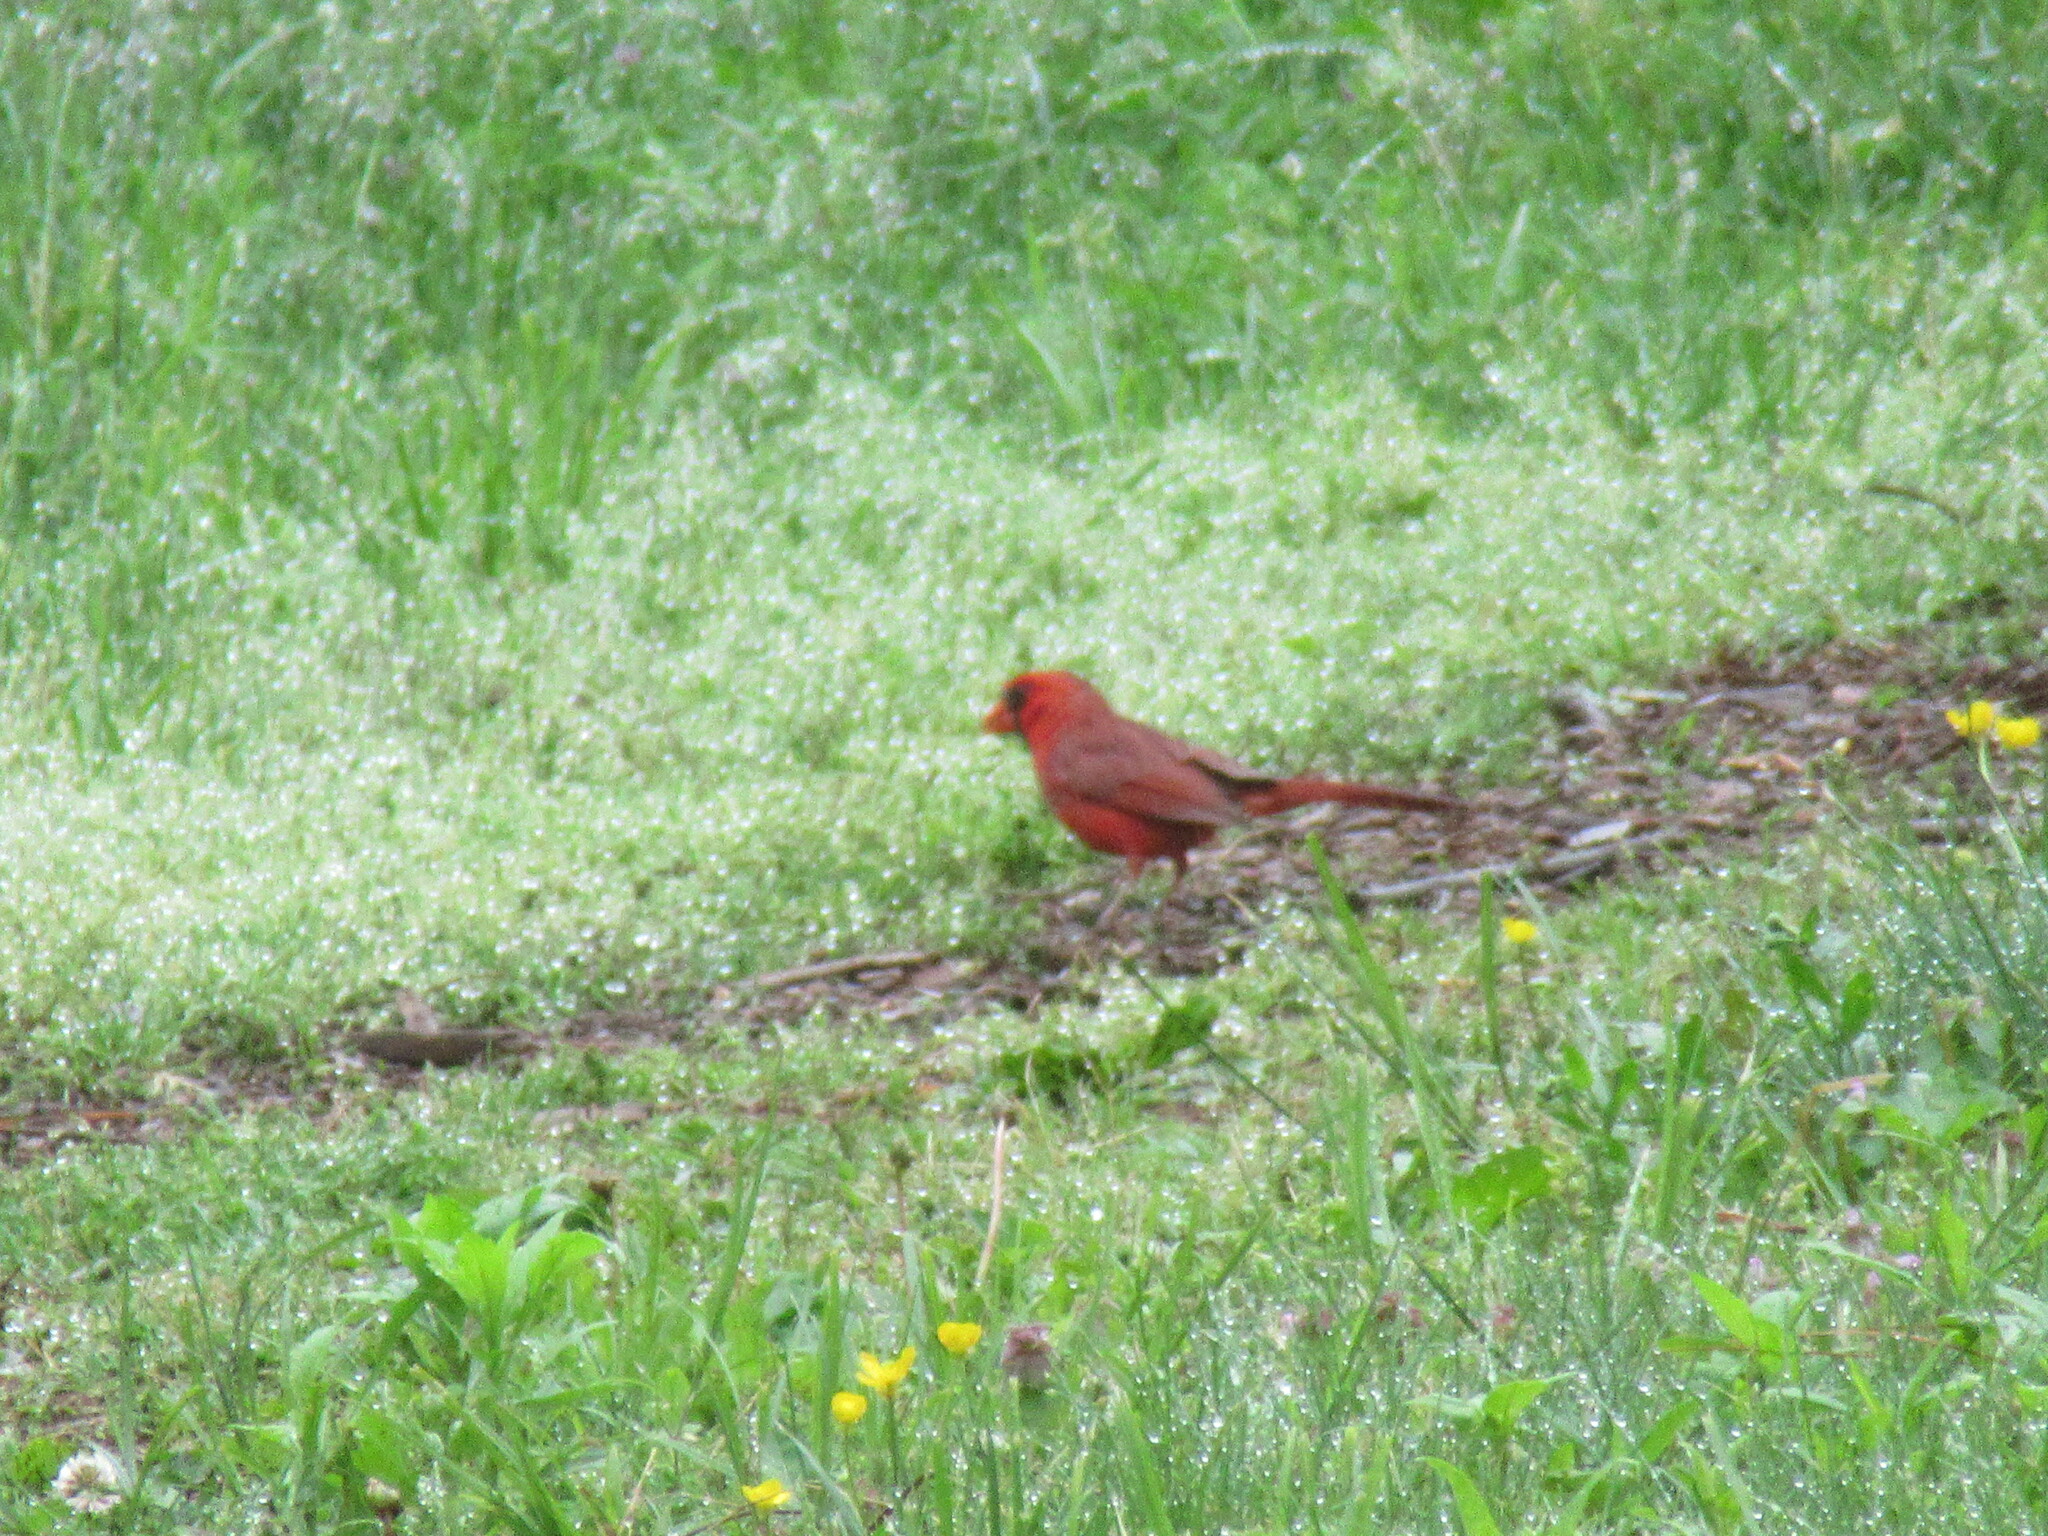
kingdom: Animalia
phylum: Chordata
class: Aves
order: Passeriformes
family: Cardinalidae
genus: Cardinalis
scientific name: Cardinalis cardinalis
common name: Northern cardinal
